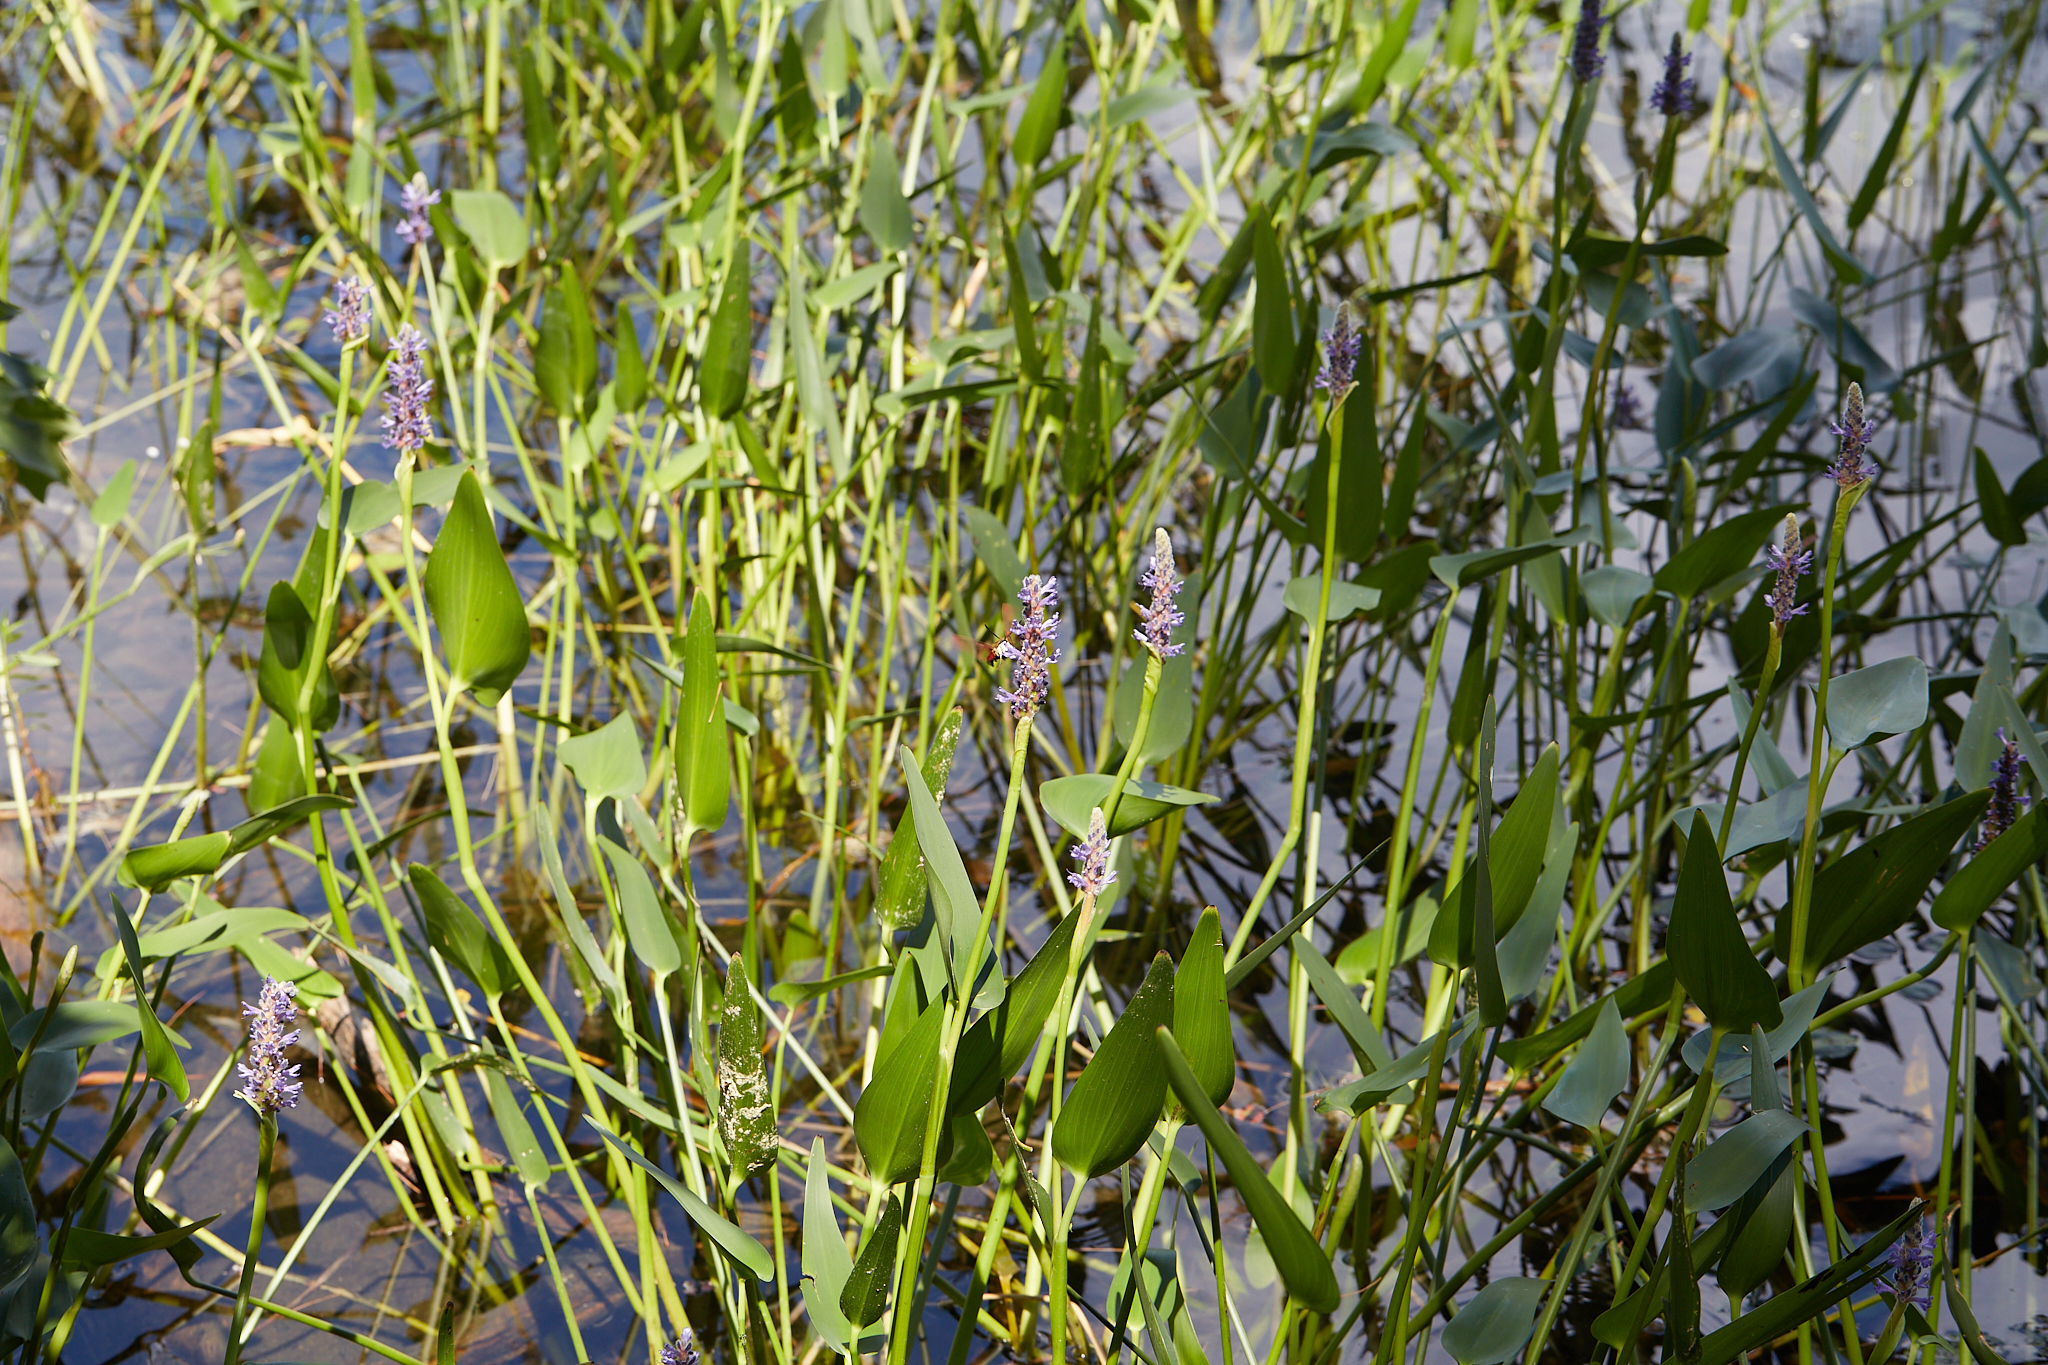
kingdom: Plantae
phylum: Tracheophyta
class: Liliopsida
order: Commelinales
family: Pontederiaceae
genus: Pontederia
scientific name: Pontederia cordata
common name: Pickerelweed
